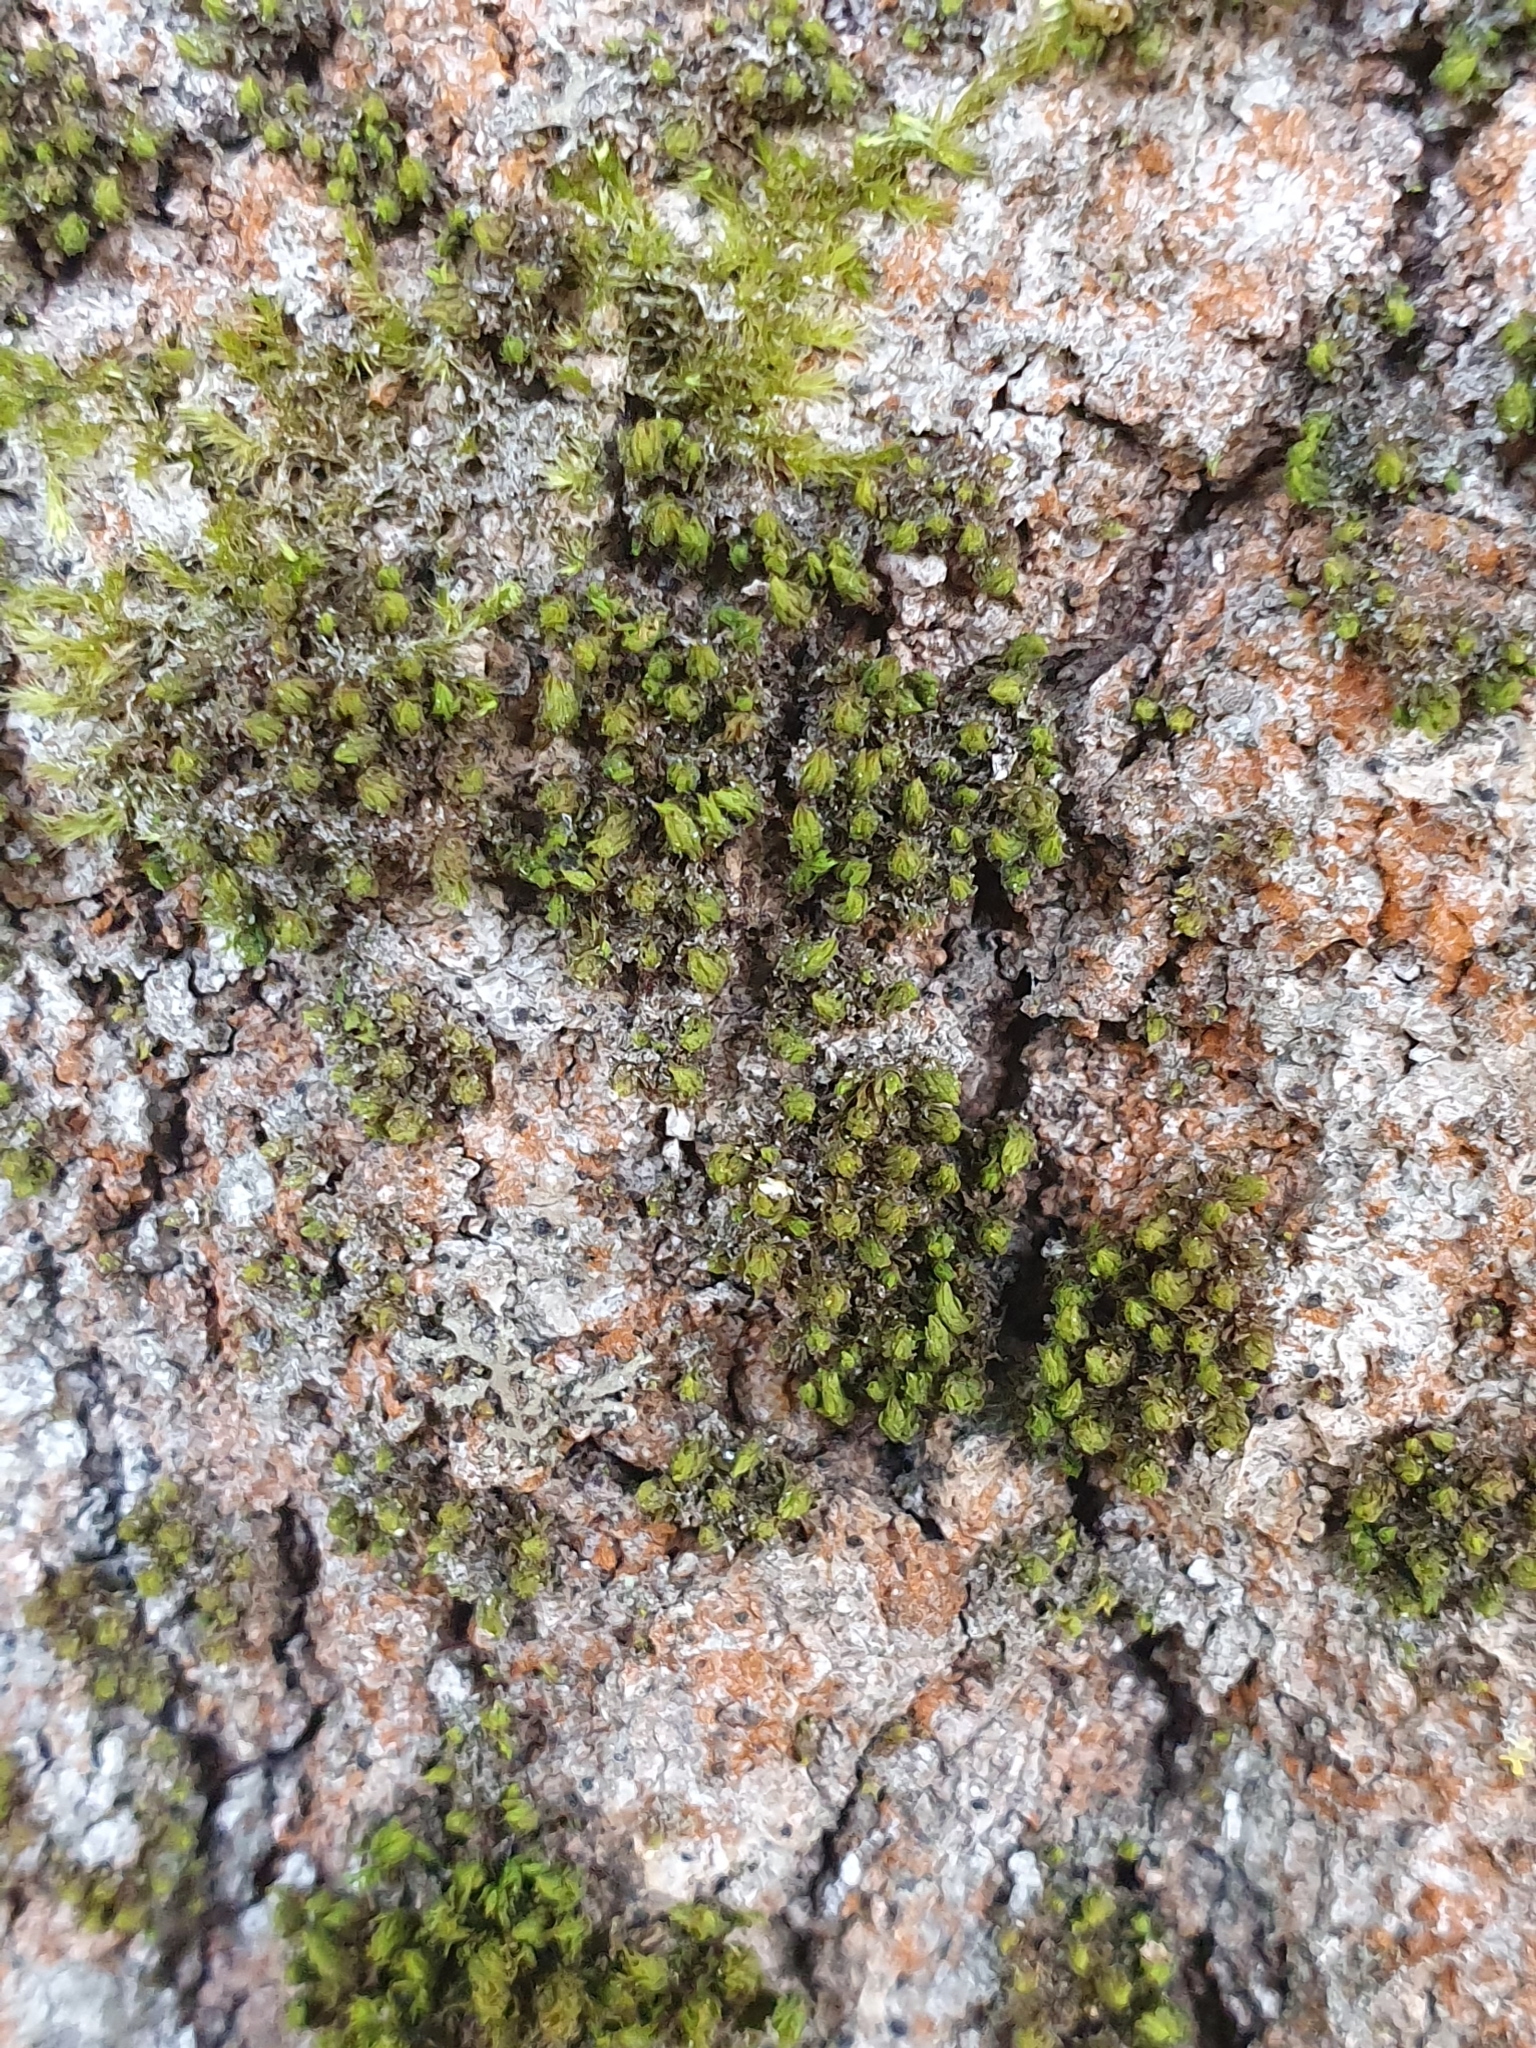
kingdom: Plantae
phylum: Bryophyta
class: Bryopsida
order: Orthotrichales
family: Orthotrichaceae
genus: Nyholmiella
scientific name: Nyholmiella obtusifolia
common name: Blunt-leaved bristle-moss
